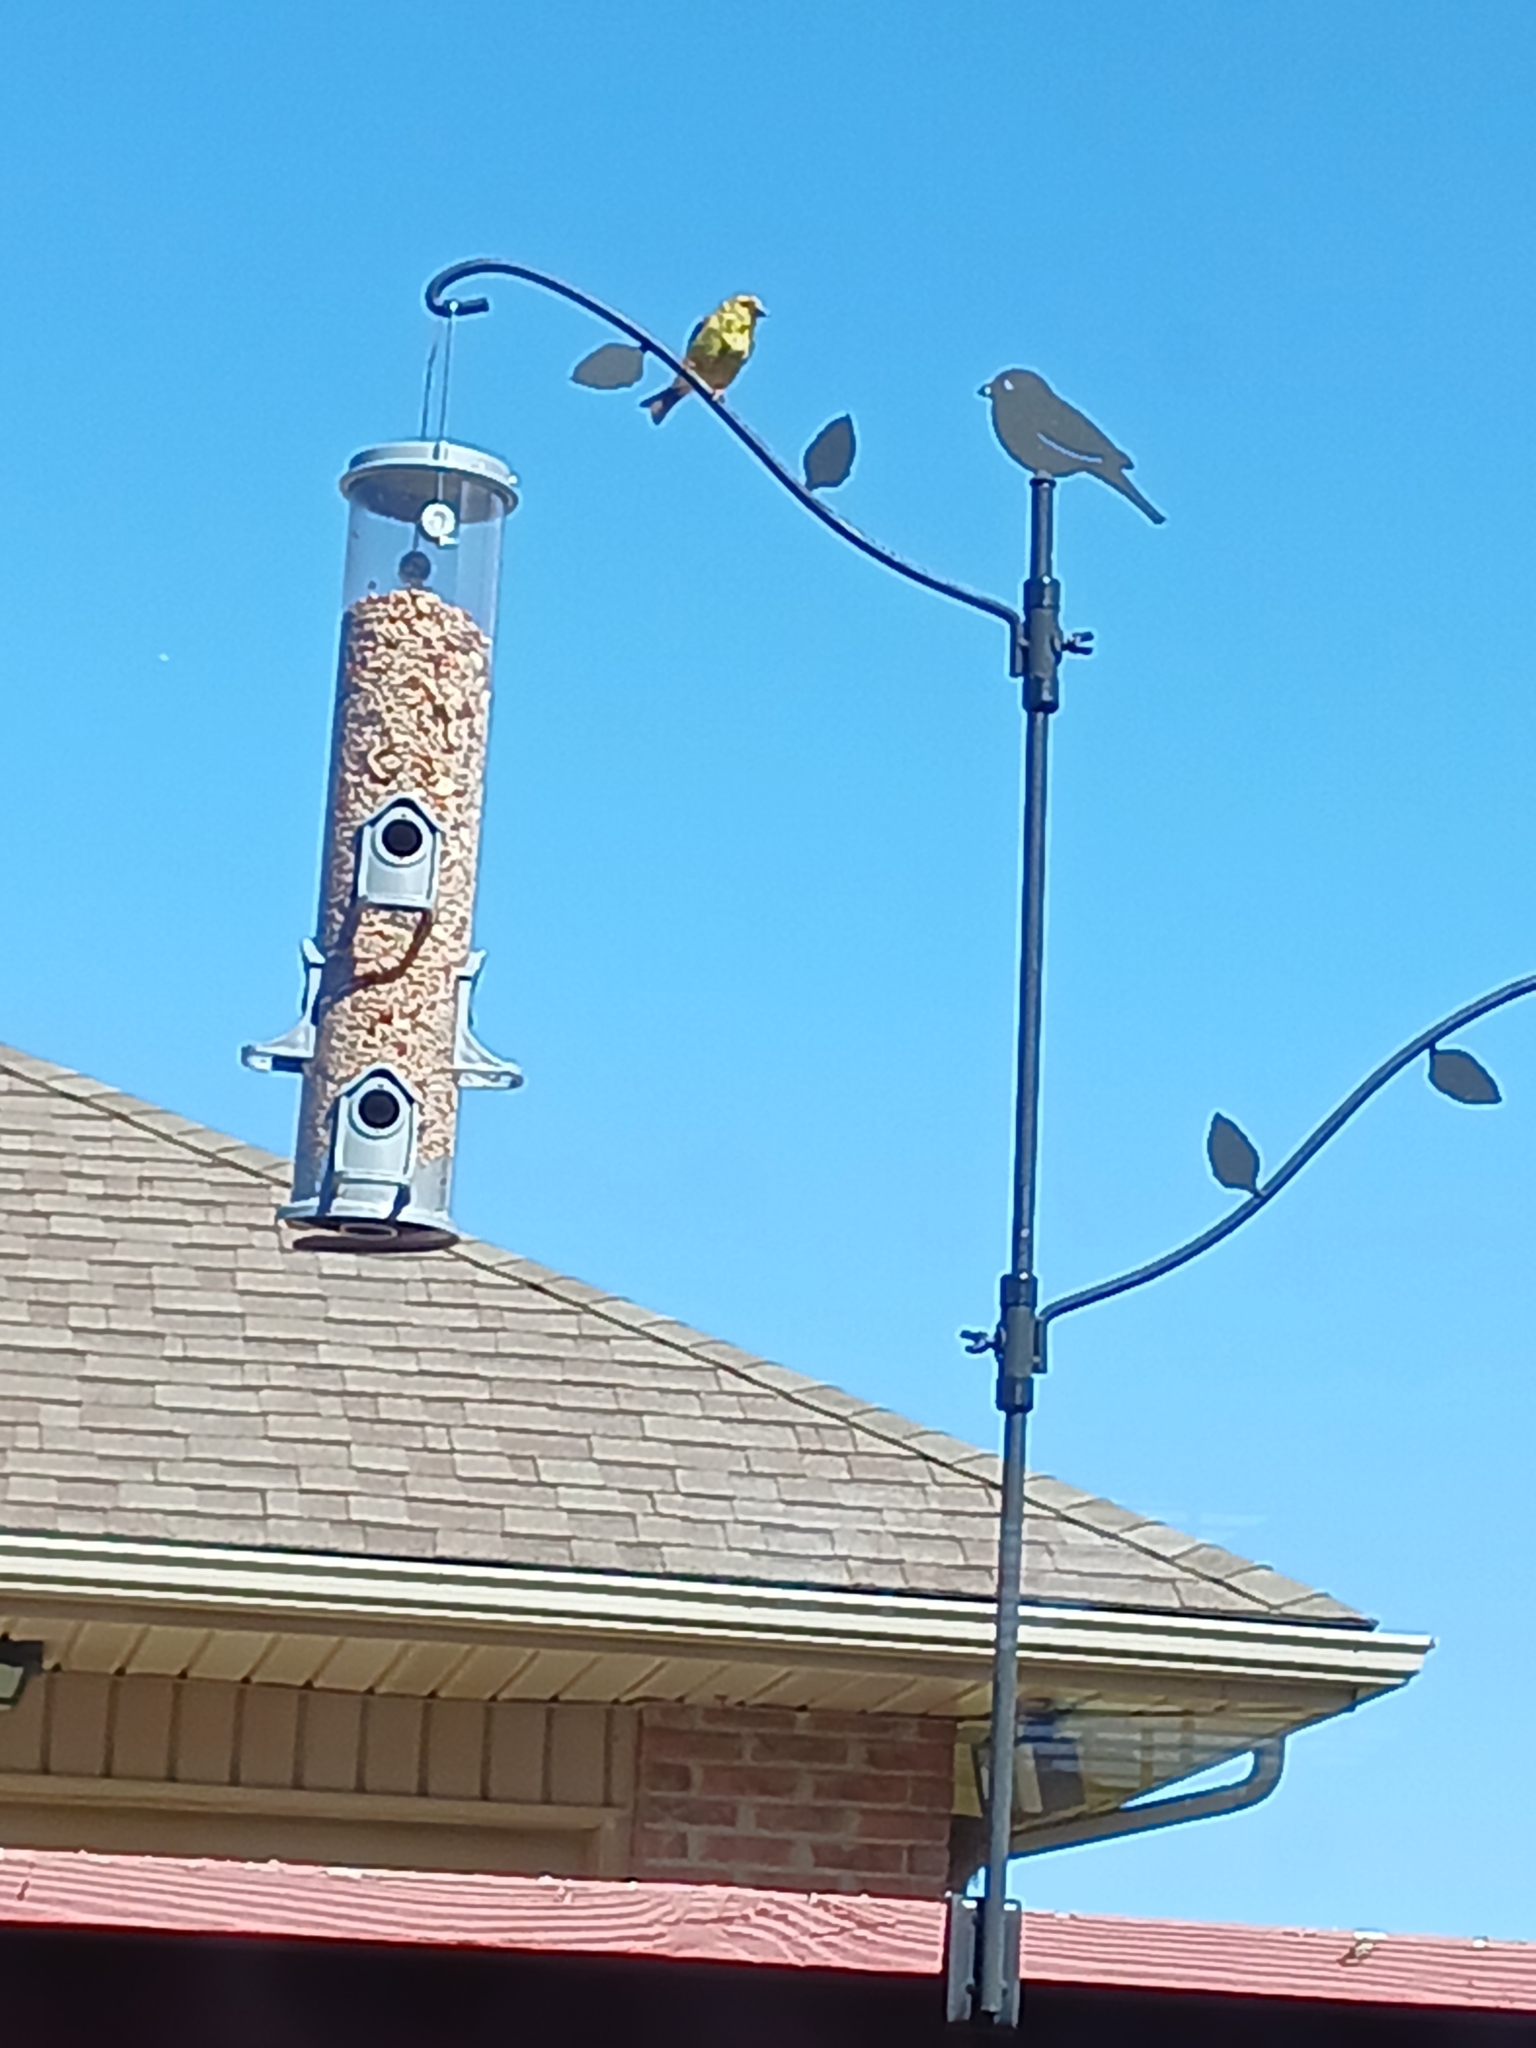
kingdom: Animalia
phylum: Chordata
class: Aves
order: Passeriformes
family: Fringillidae
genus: Spinus
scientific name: Spinus tristis
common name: American goldfinch
